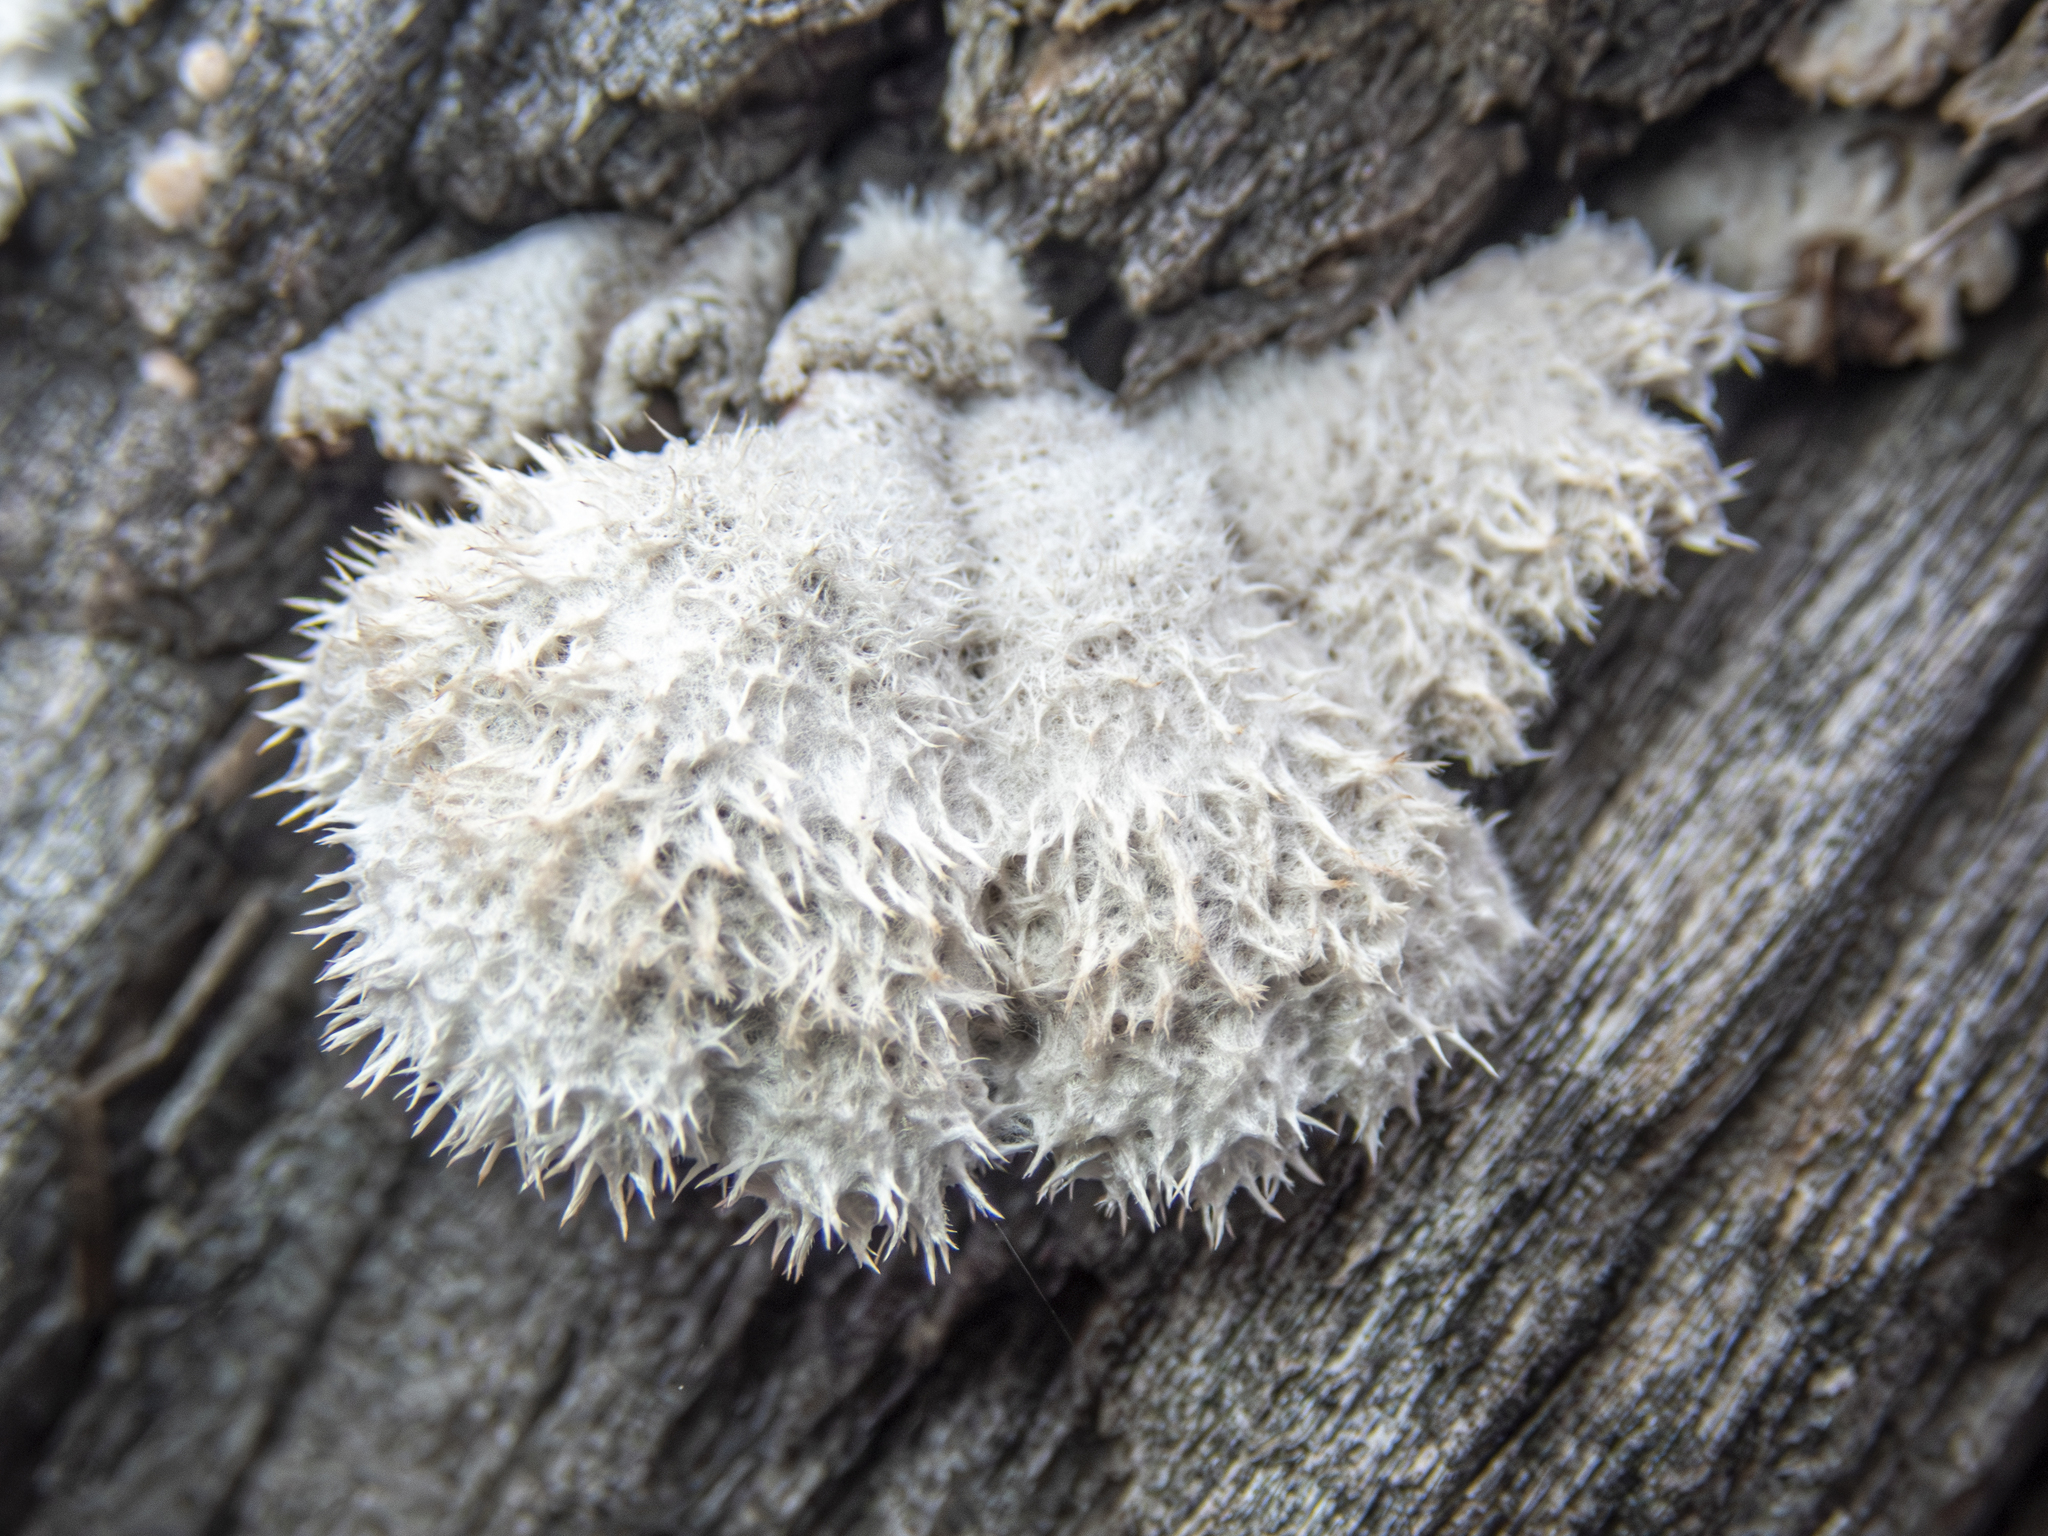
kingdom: Fungi
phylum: Basidiomycota
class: Agaricomycetes
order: Agaricales
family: Schizophyllaceae
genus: Schizophyllum
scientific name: Schizophyllum commune
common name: Common porecrust
